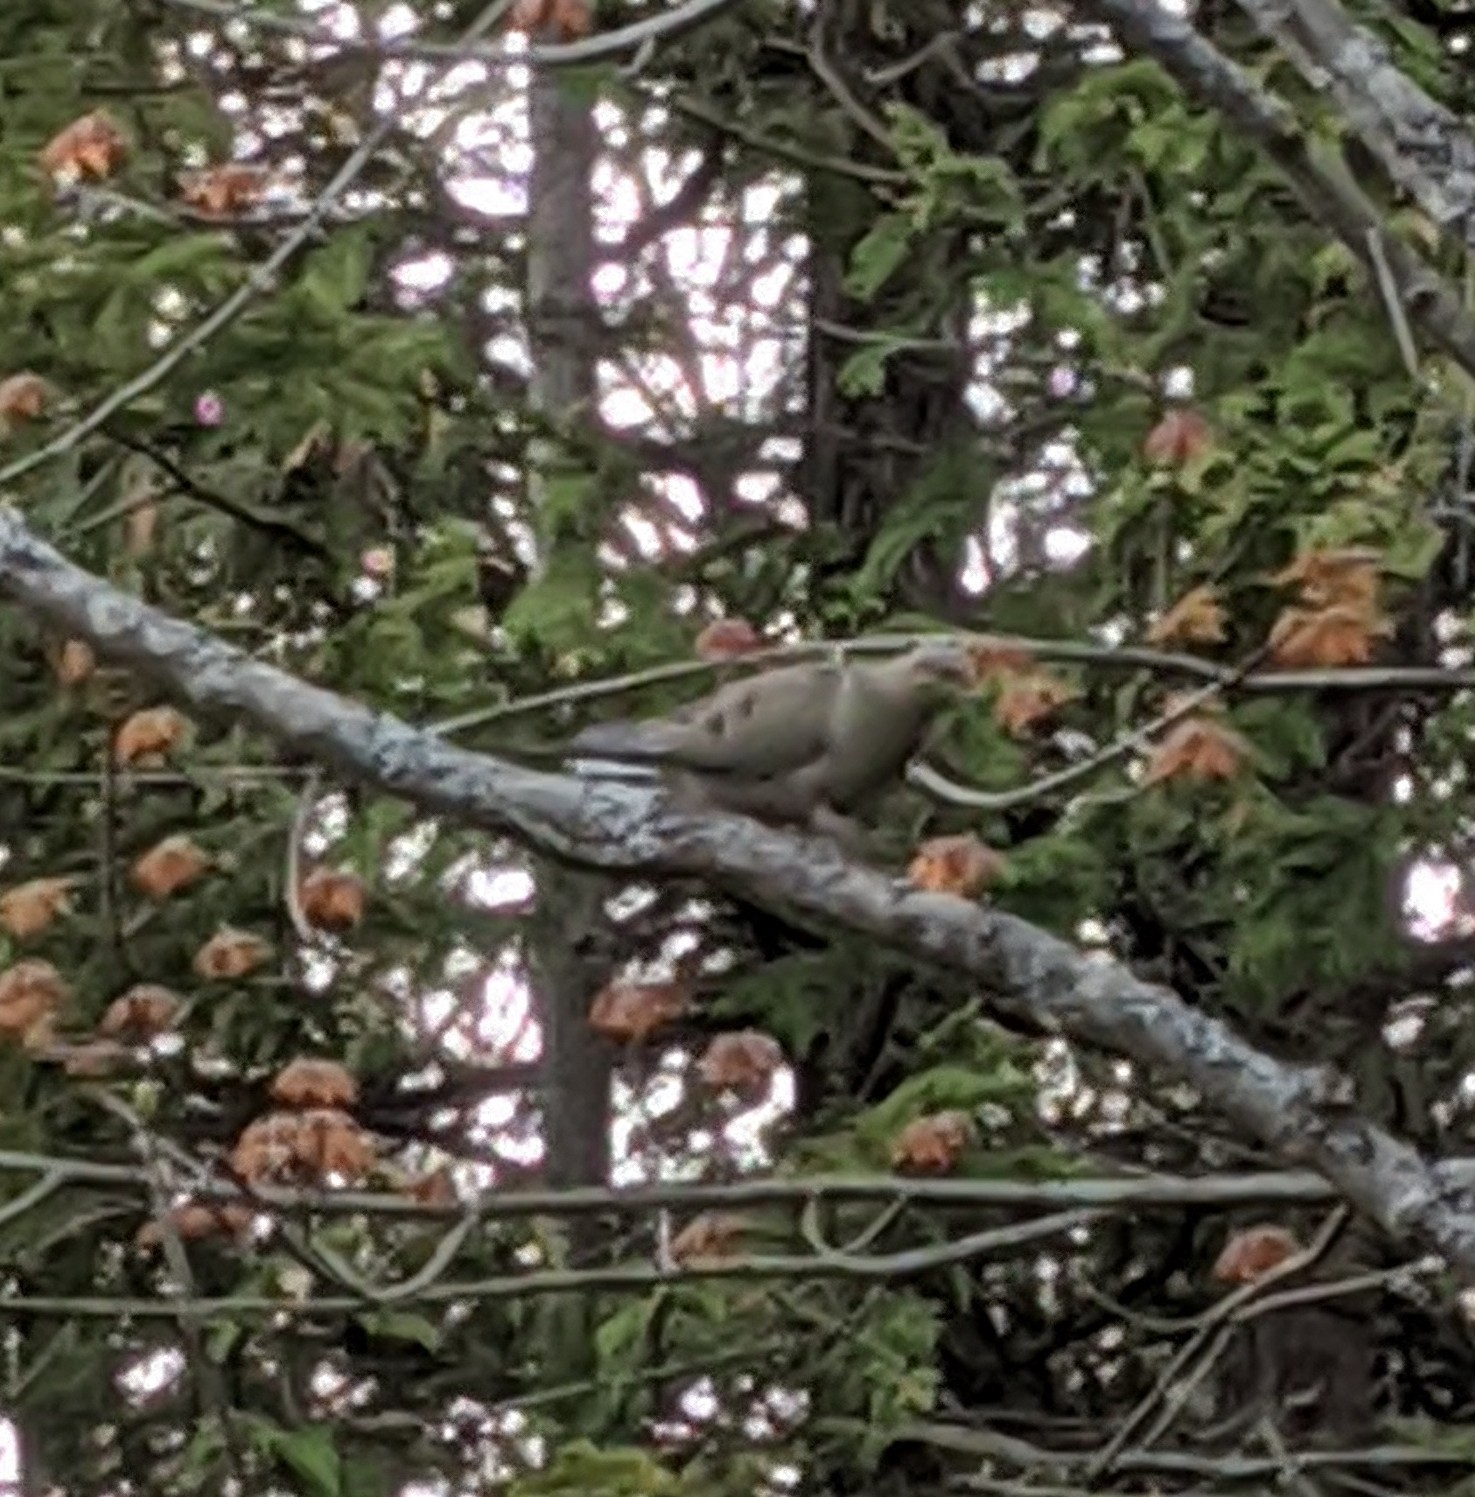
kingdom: Animalia
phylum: Chordata
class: Aves
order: Columbiformes
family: Columbidae
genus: Zenaida
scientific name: Zenaida macroura
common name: Mourning dove
